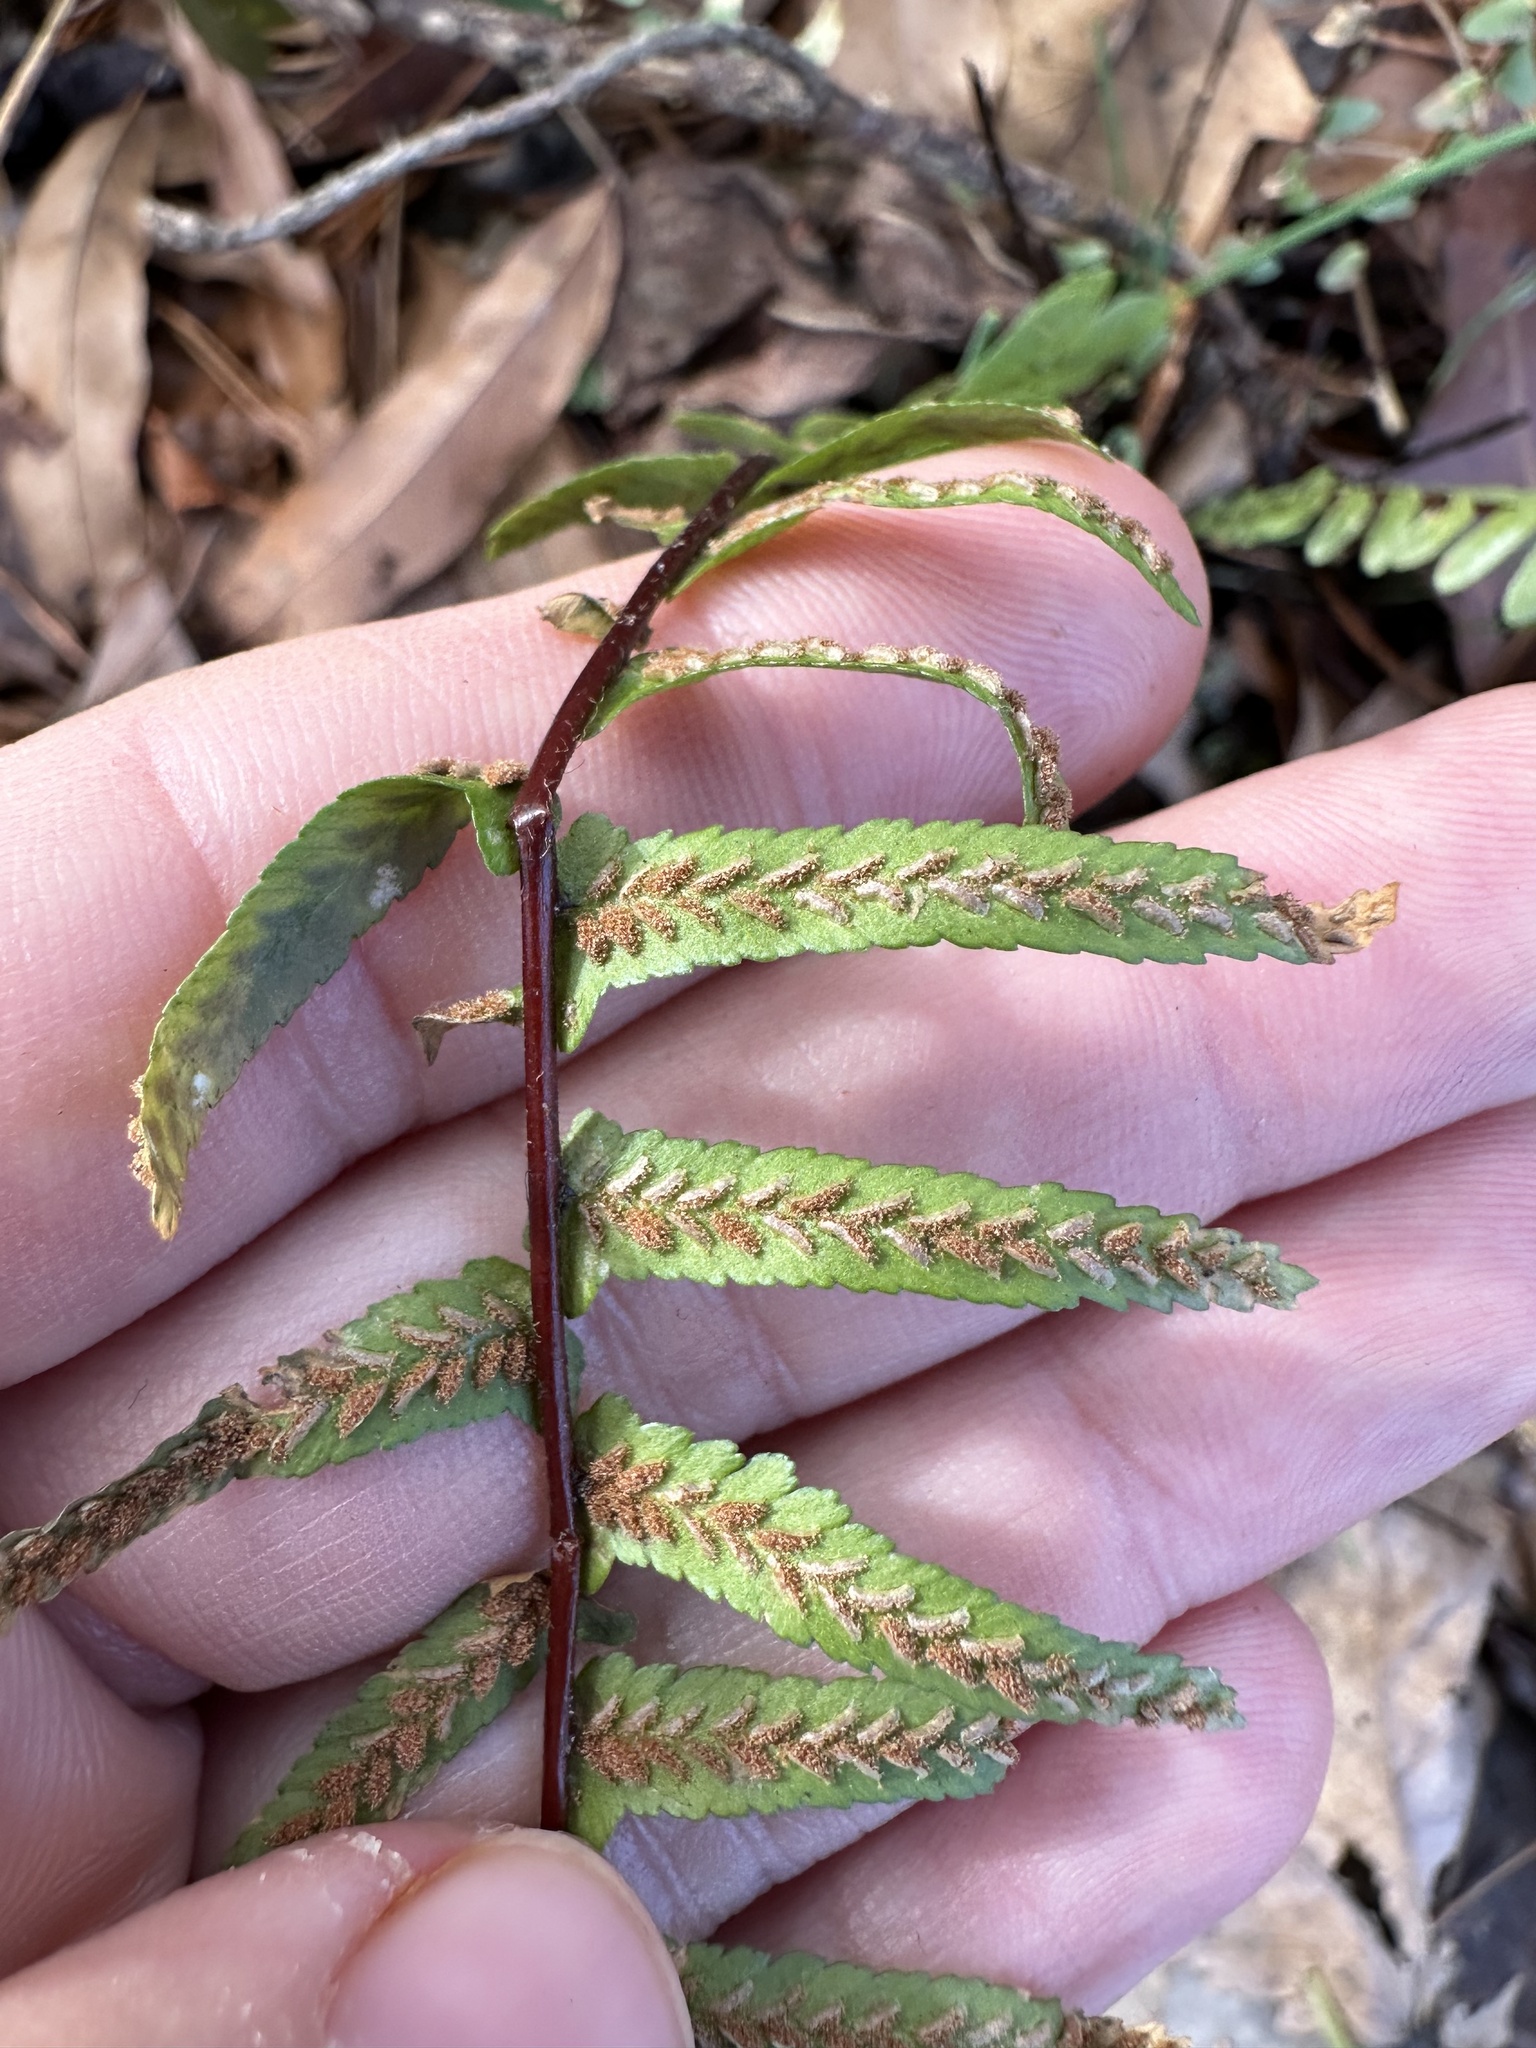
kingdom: Plantae
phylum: Tracheophyta
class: Polypodiopsida
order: Polypodiales
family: Aspleniaceae
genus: Asplenium
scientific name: Asplenium platyneuron
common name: Ebony spleenwort
